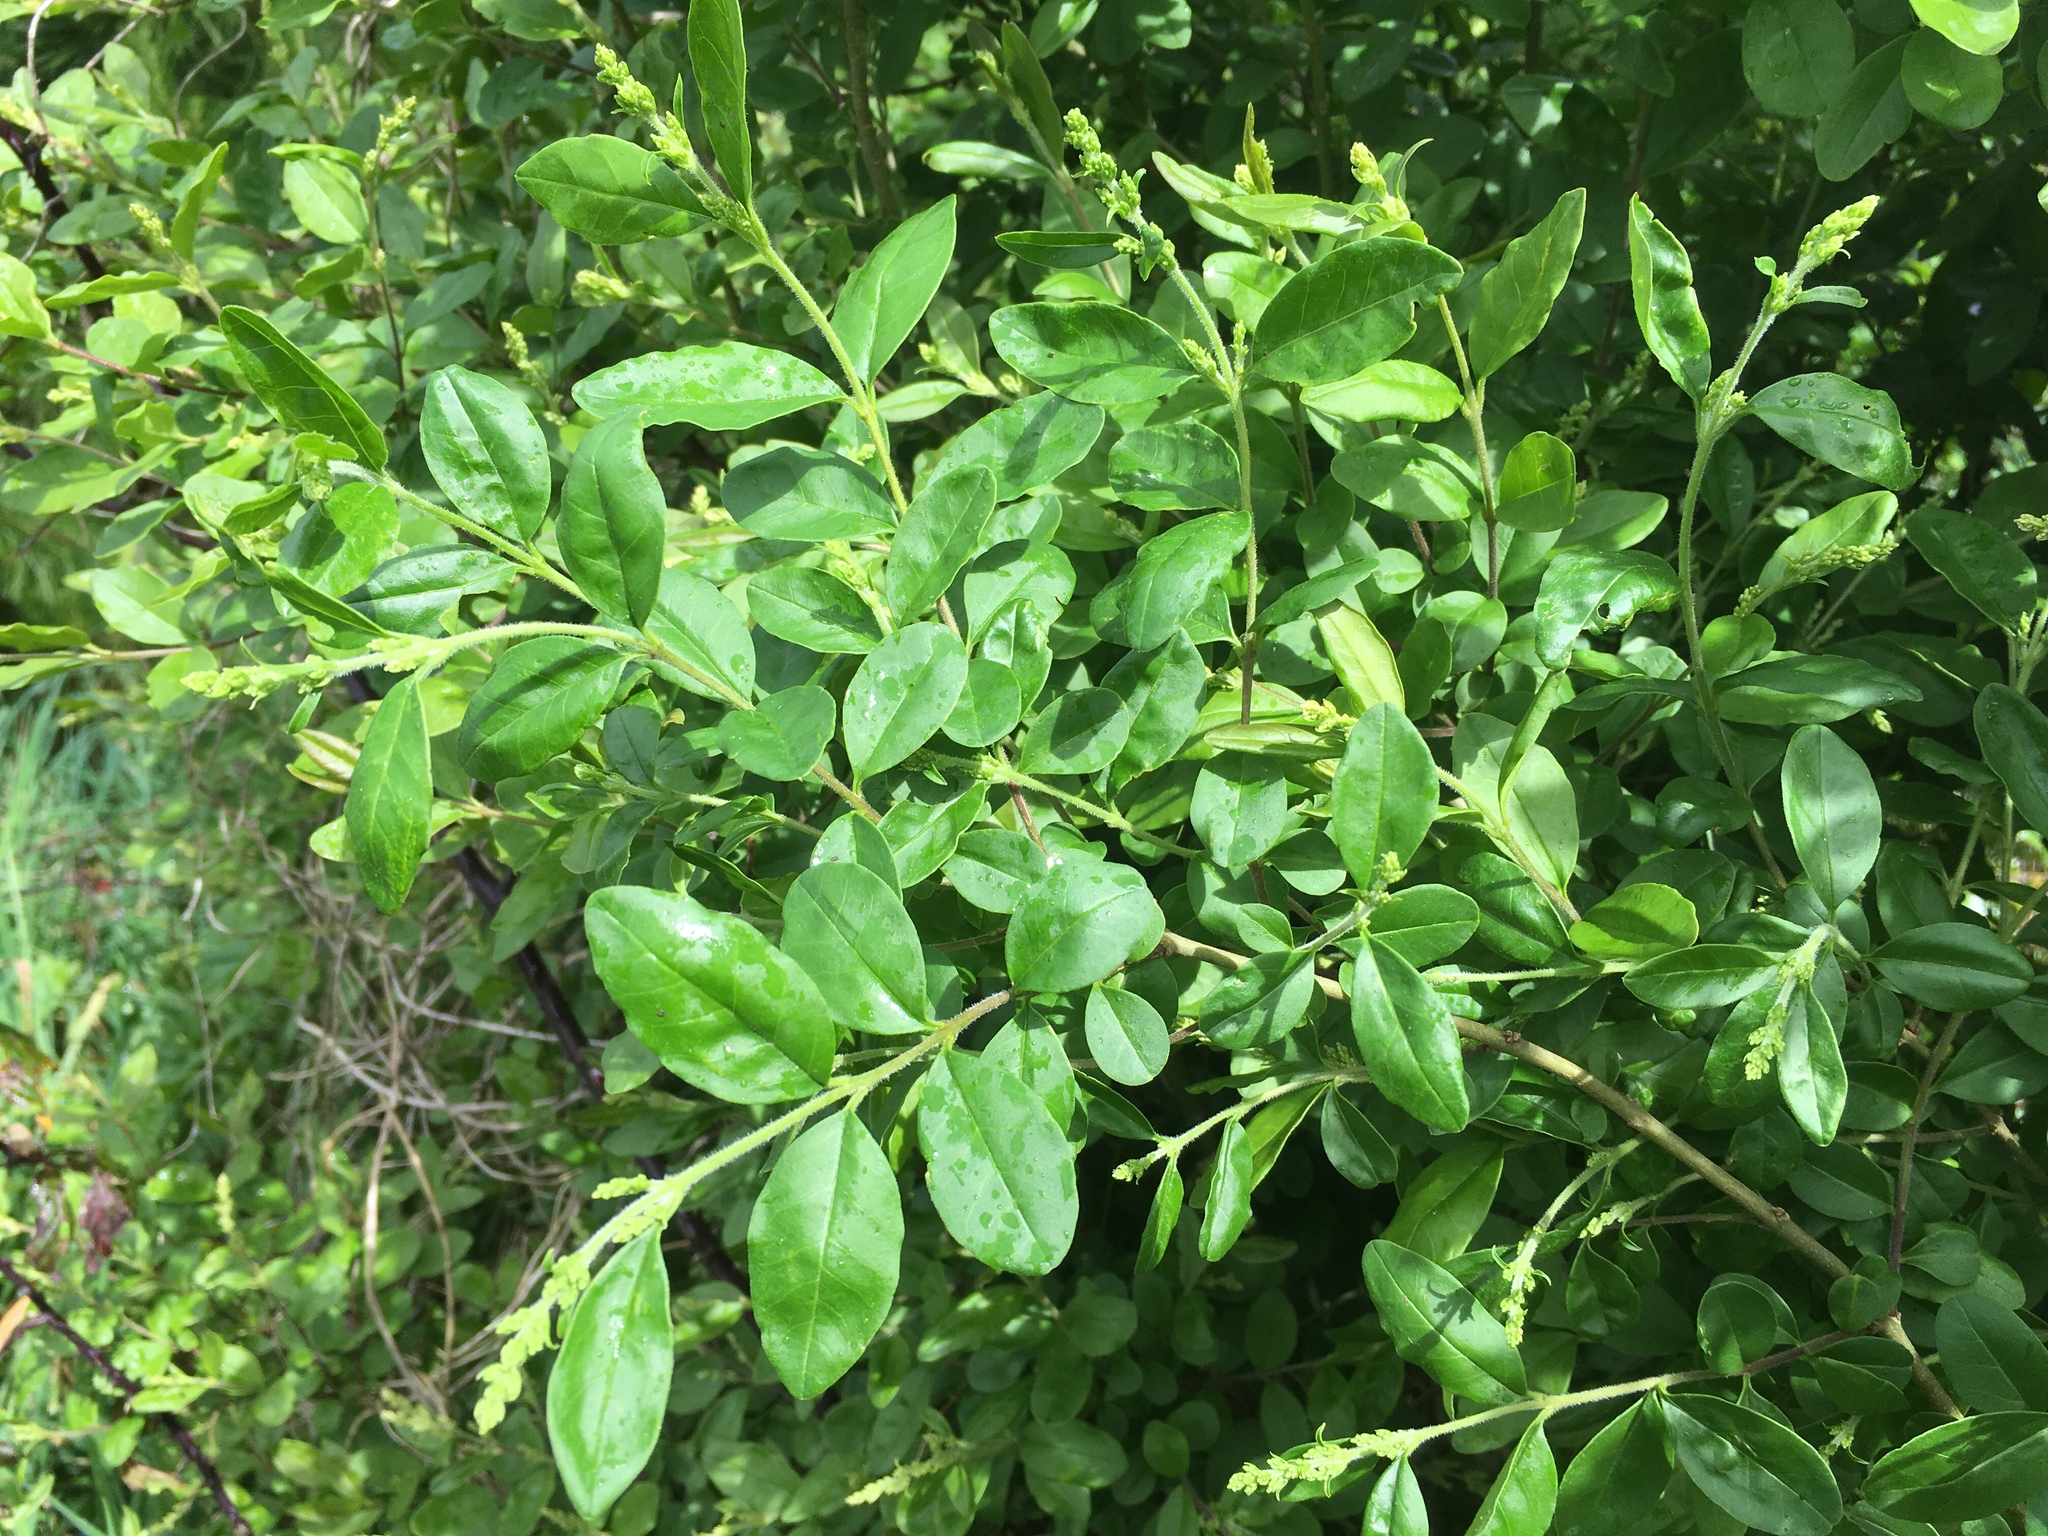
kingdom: Plantae
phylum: Tracheophyta
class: Magnoliopsida
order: Lamiales
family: Oleaceae
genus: Ligustrum
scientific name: Ligustrum sinense
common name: Chinese privet
